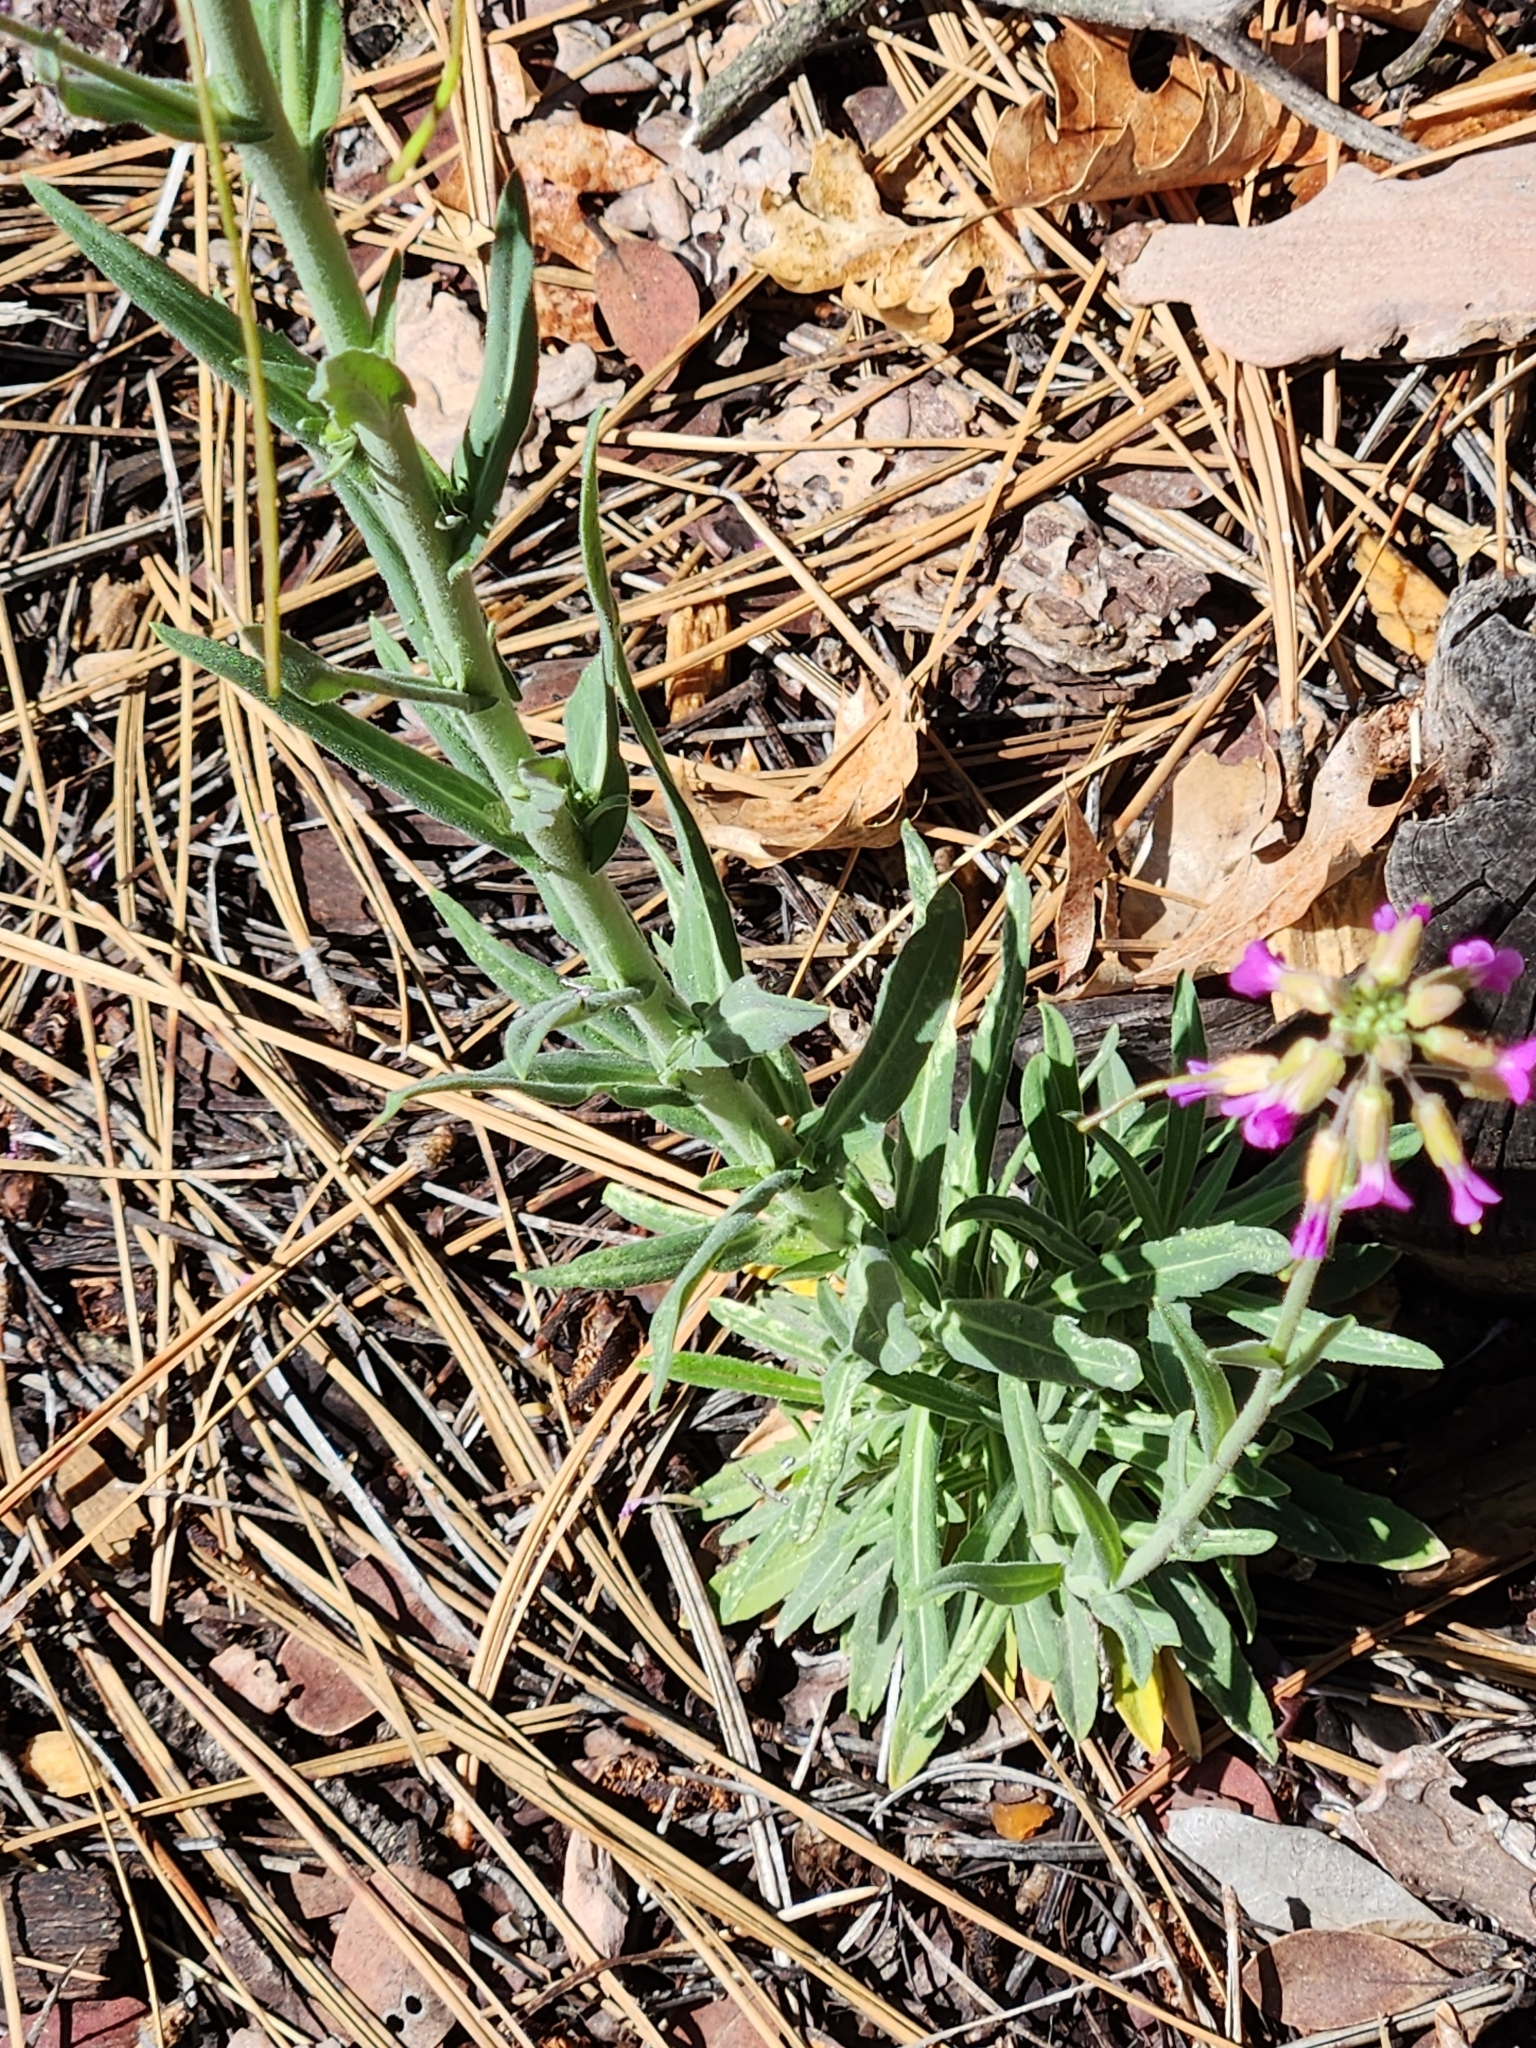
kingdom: Plantae
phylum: Tracheophyta
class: Magnoliopsida
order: Brassicales
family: Brassicaceae
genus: Boechera
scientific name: Boechera californica
